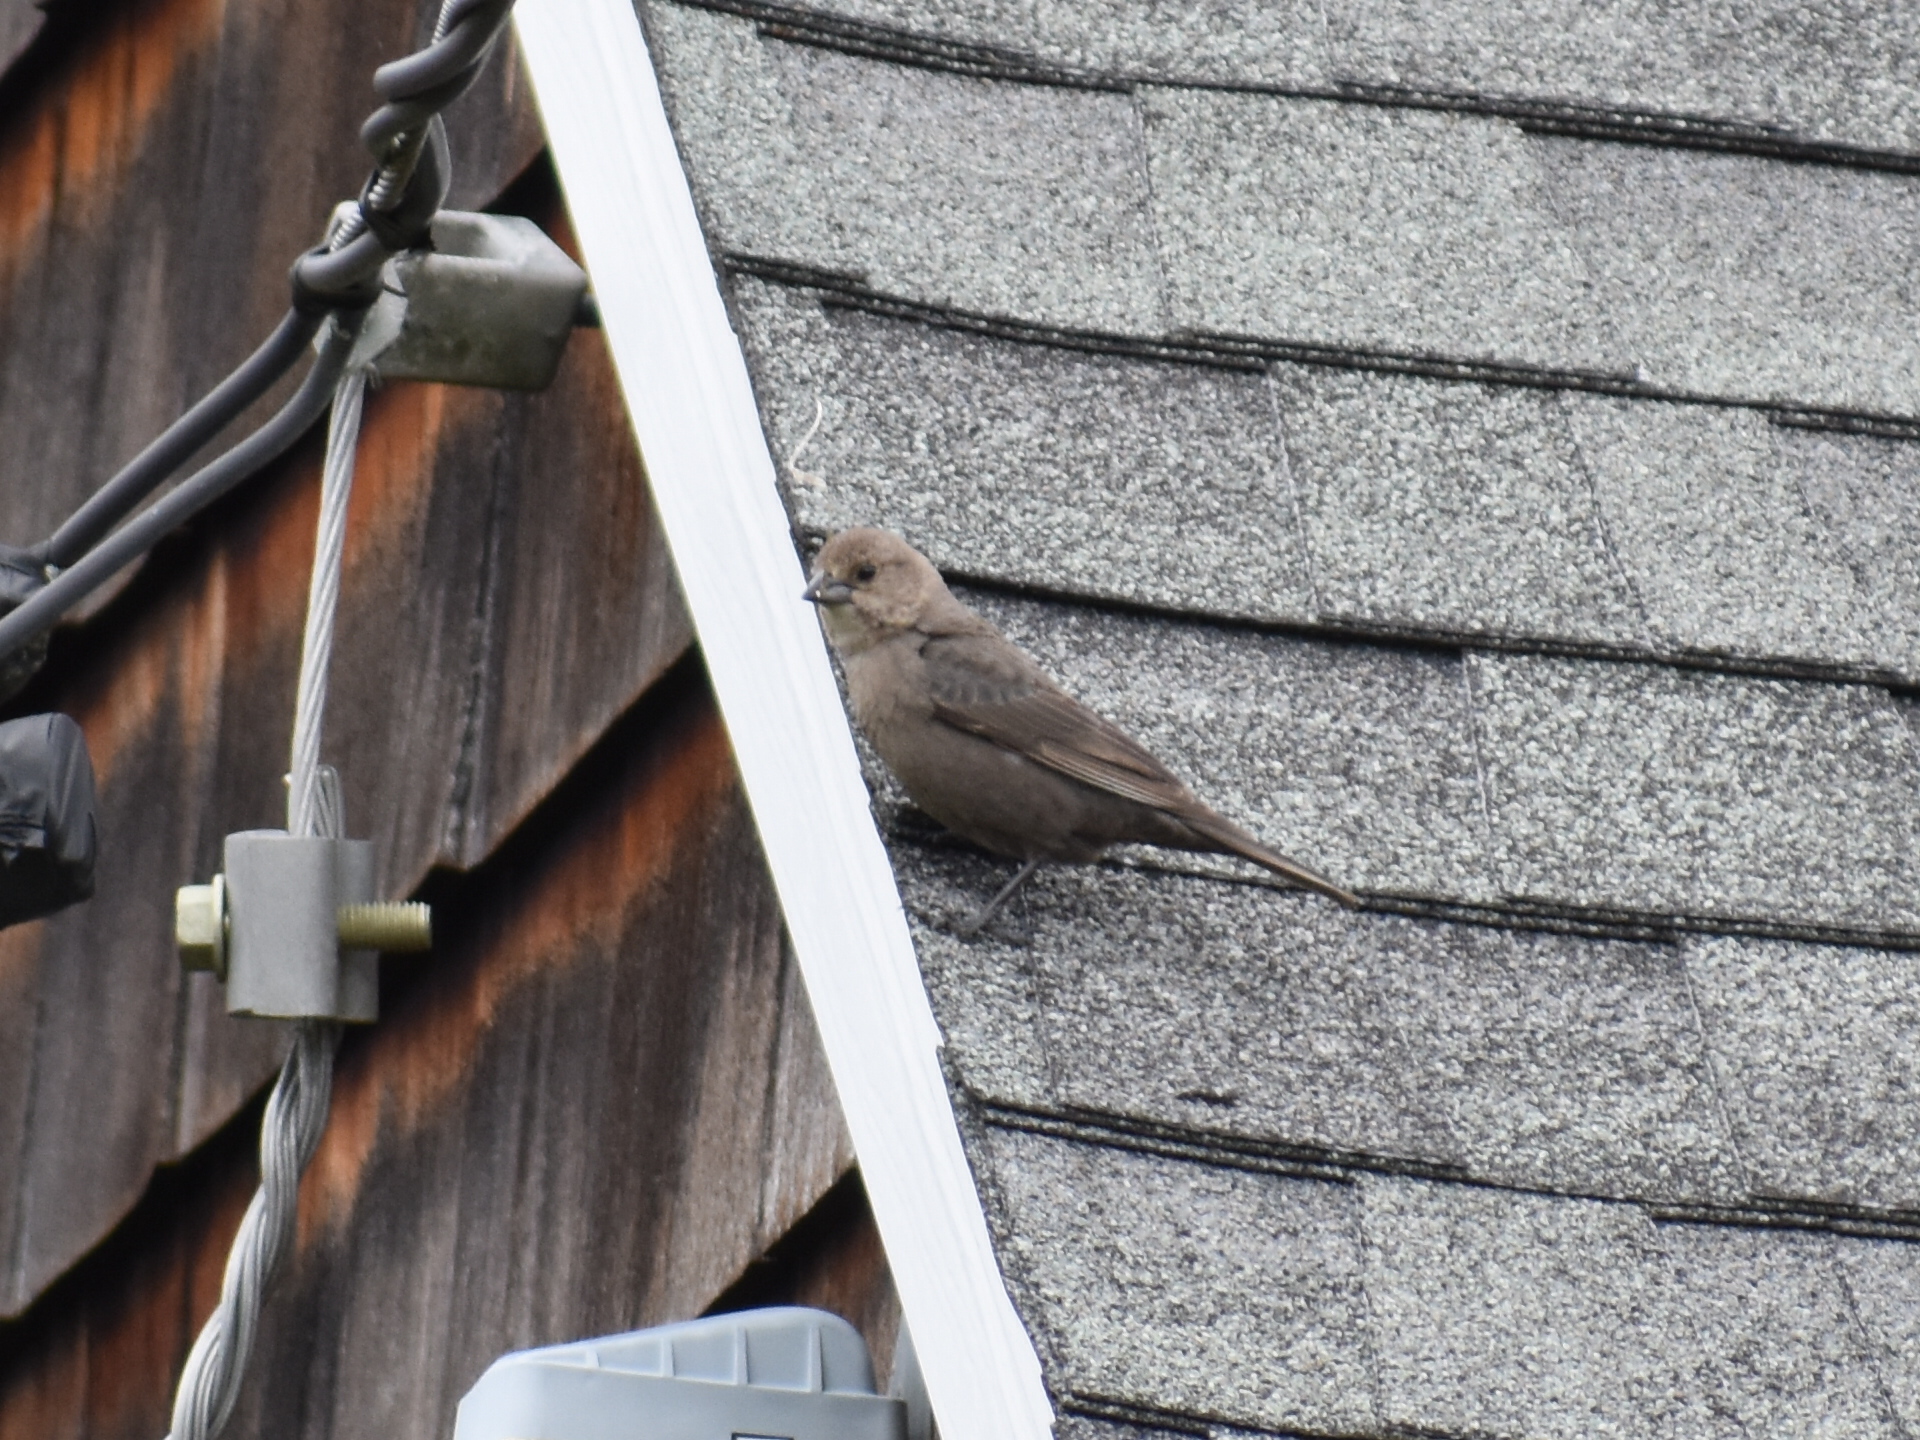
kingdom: Animalia
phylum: Chordata
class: Aves
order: Passeriformes
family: Icteridae
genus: Molothrus
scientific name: Molothrus ater
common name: Brown-headed cowbird
